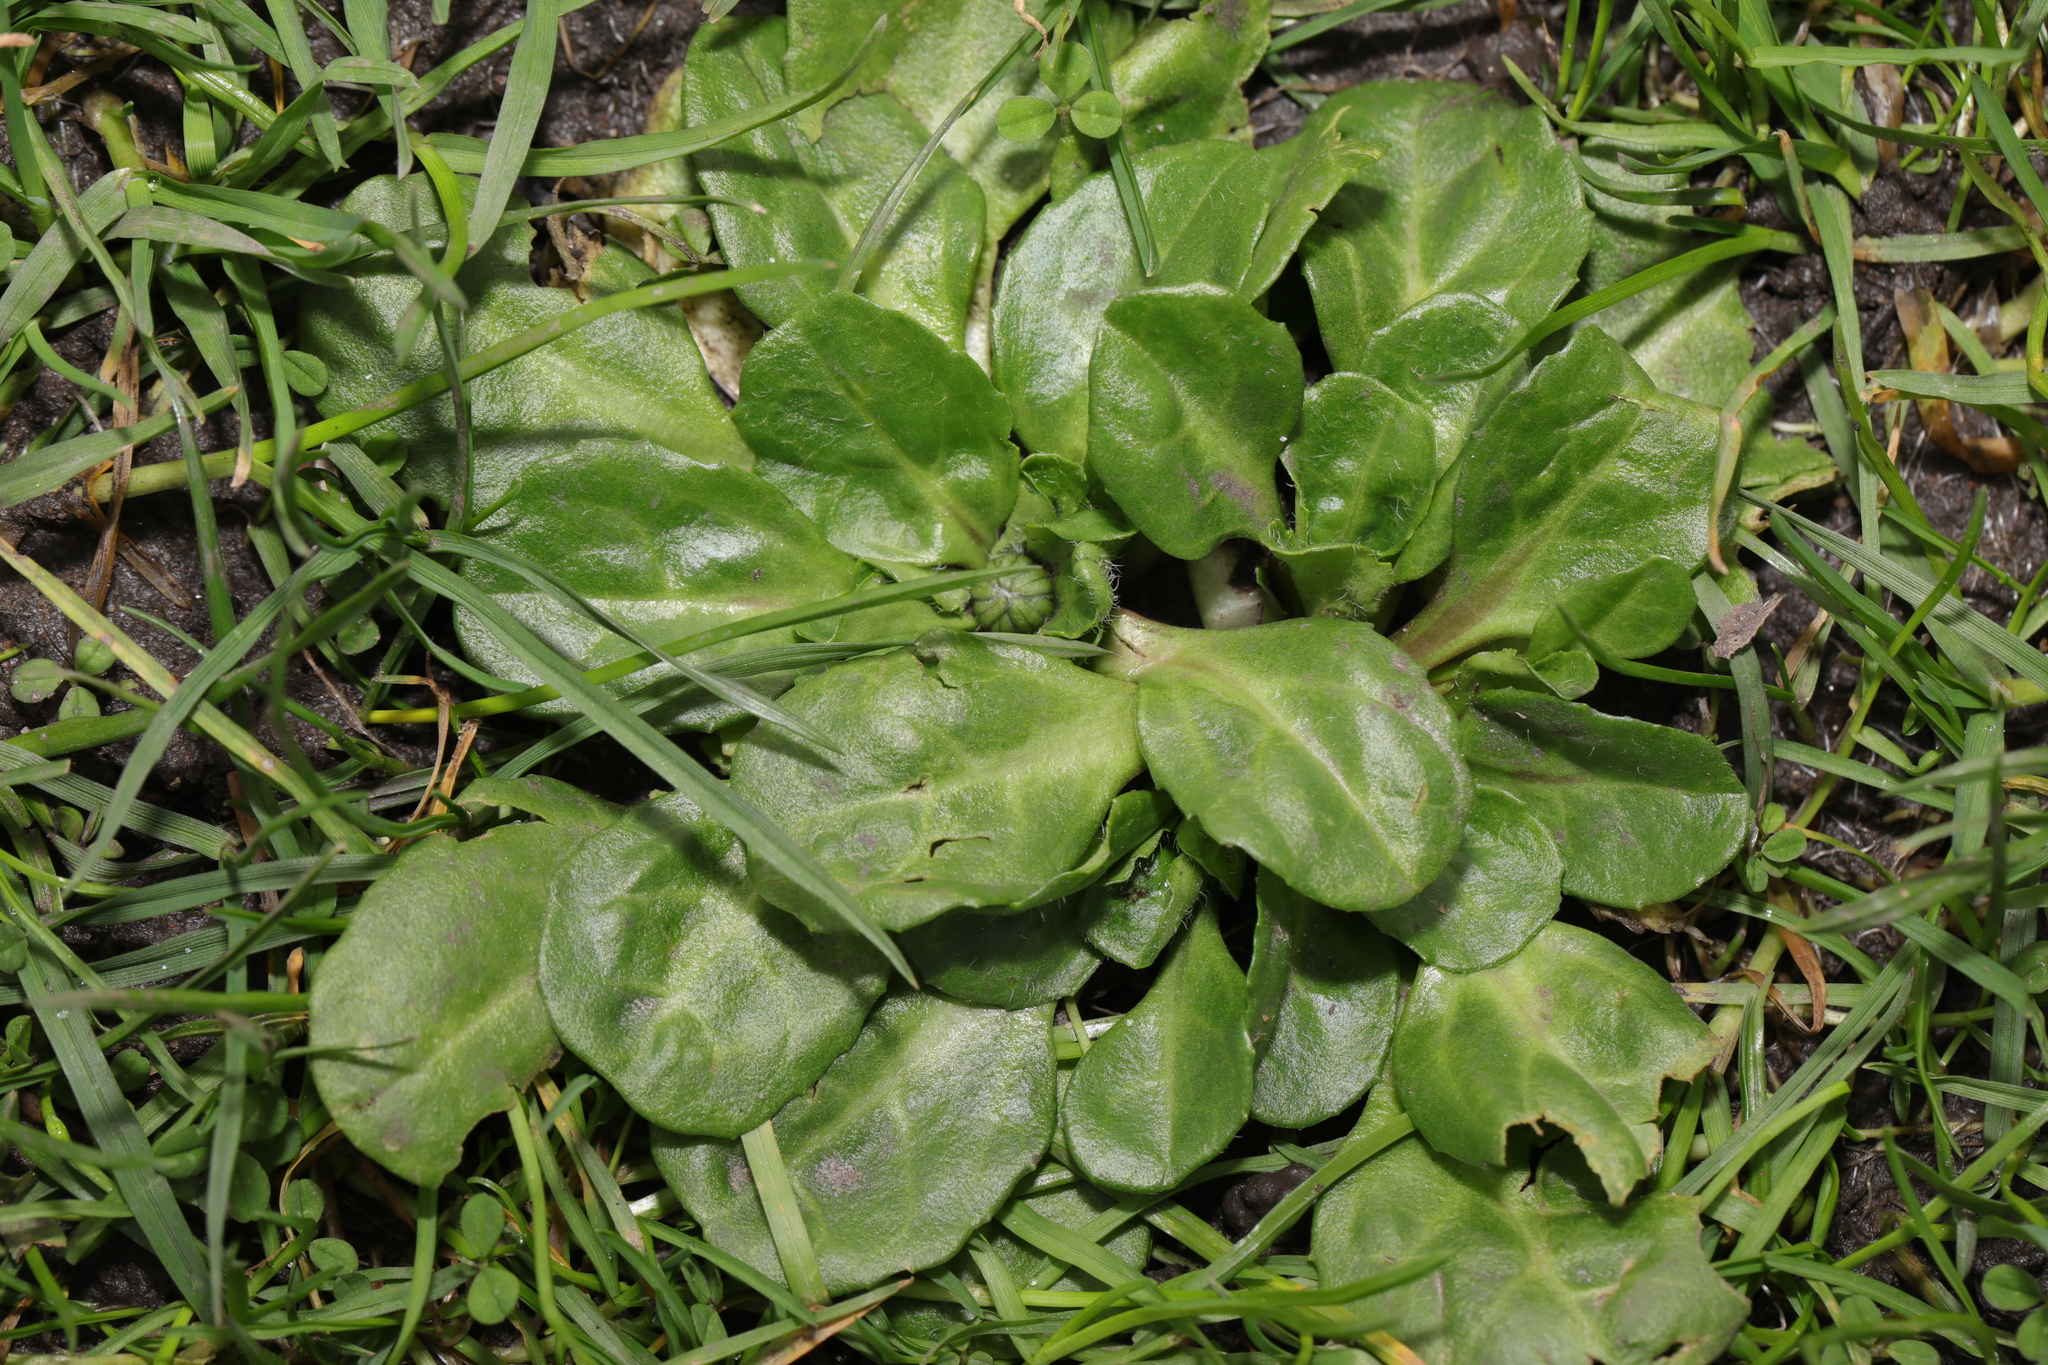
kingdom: Plantae
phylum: Tracheophyta
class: Magnoliopsida
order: Asterales
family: Asteraceae
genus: Bellis
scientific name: Bellis perennis
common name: Lawndaisy
